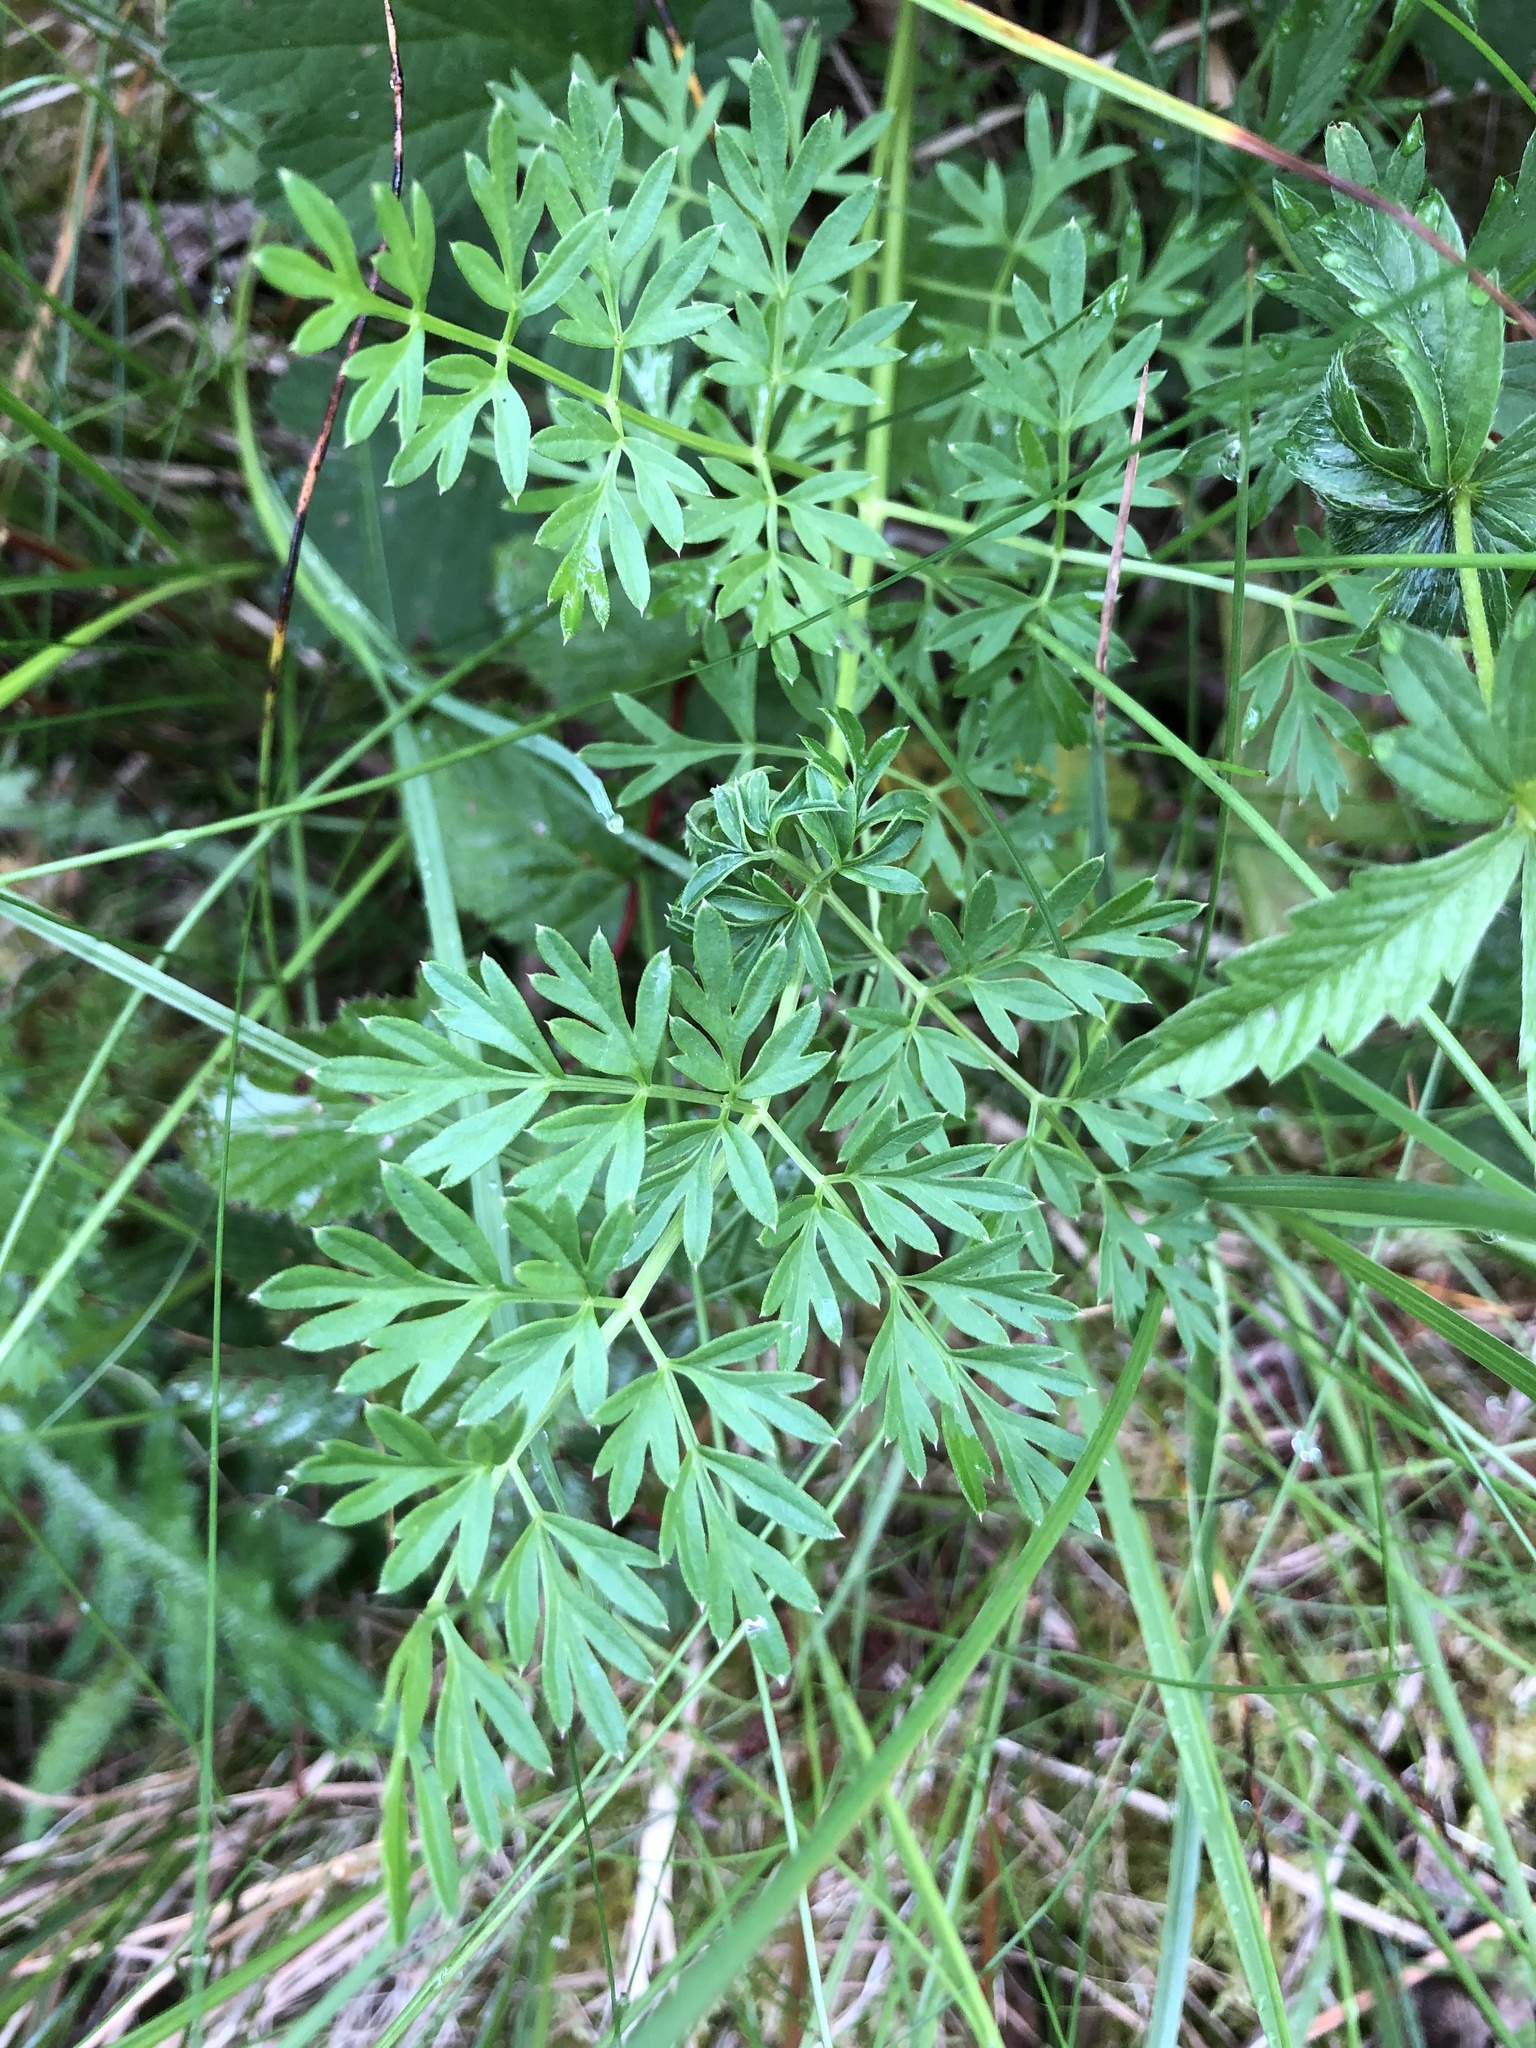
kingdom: Plantae
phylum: Tracheophyta
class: Magnoliopsida
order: Apiales
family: Apiaceae
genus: Selinum
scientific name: Selinum carvifolia
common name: Cambridge milk-parsley
